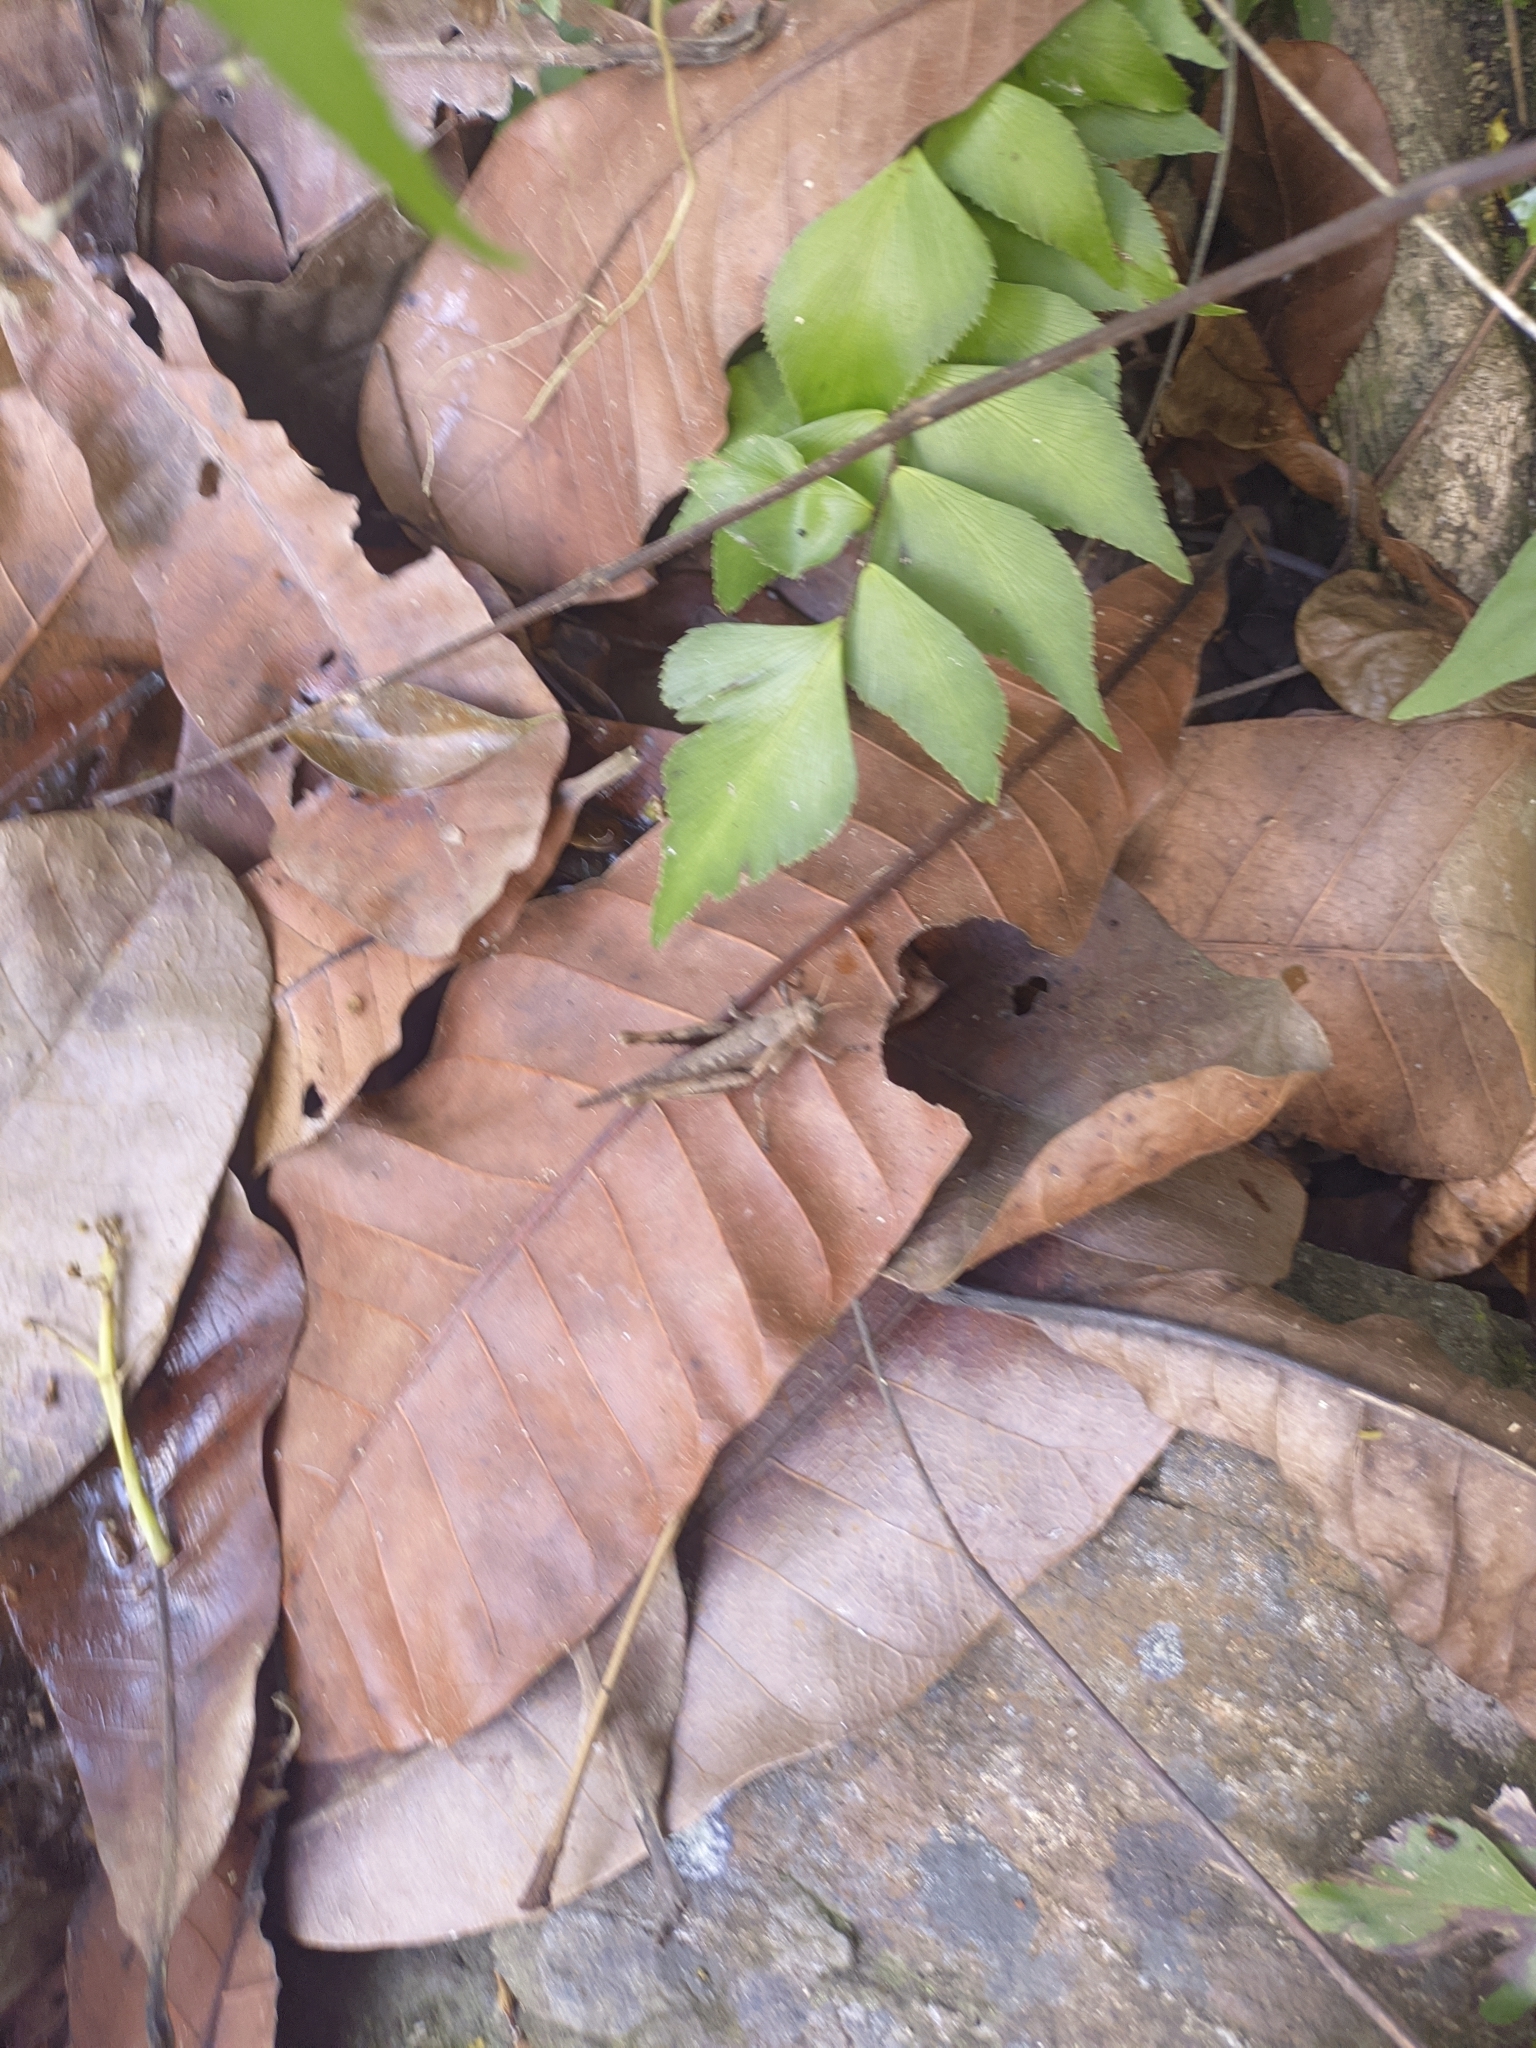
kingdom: Animalia
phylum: Arthropoda
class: Insecta
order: Orthoptera
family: Acrididae
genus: Abracris
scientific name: Abracris flavolineata
